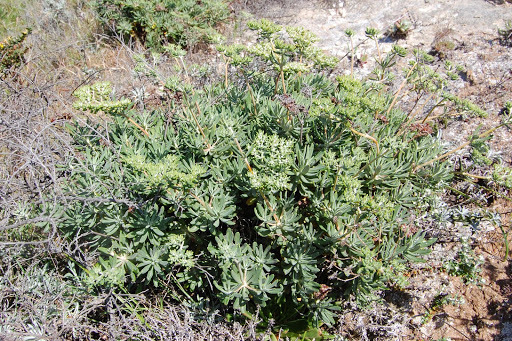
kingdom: Plantae
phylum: Tracheophyta
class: Magnoliopsida
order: Caryophyllales
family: Polygonaceae
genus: Eriogonum
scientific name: Eriogonum arborescens
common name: Island buckwheat
